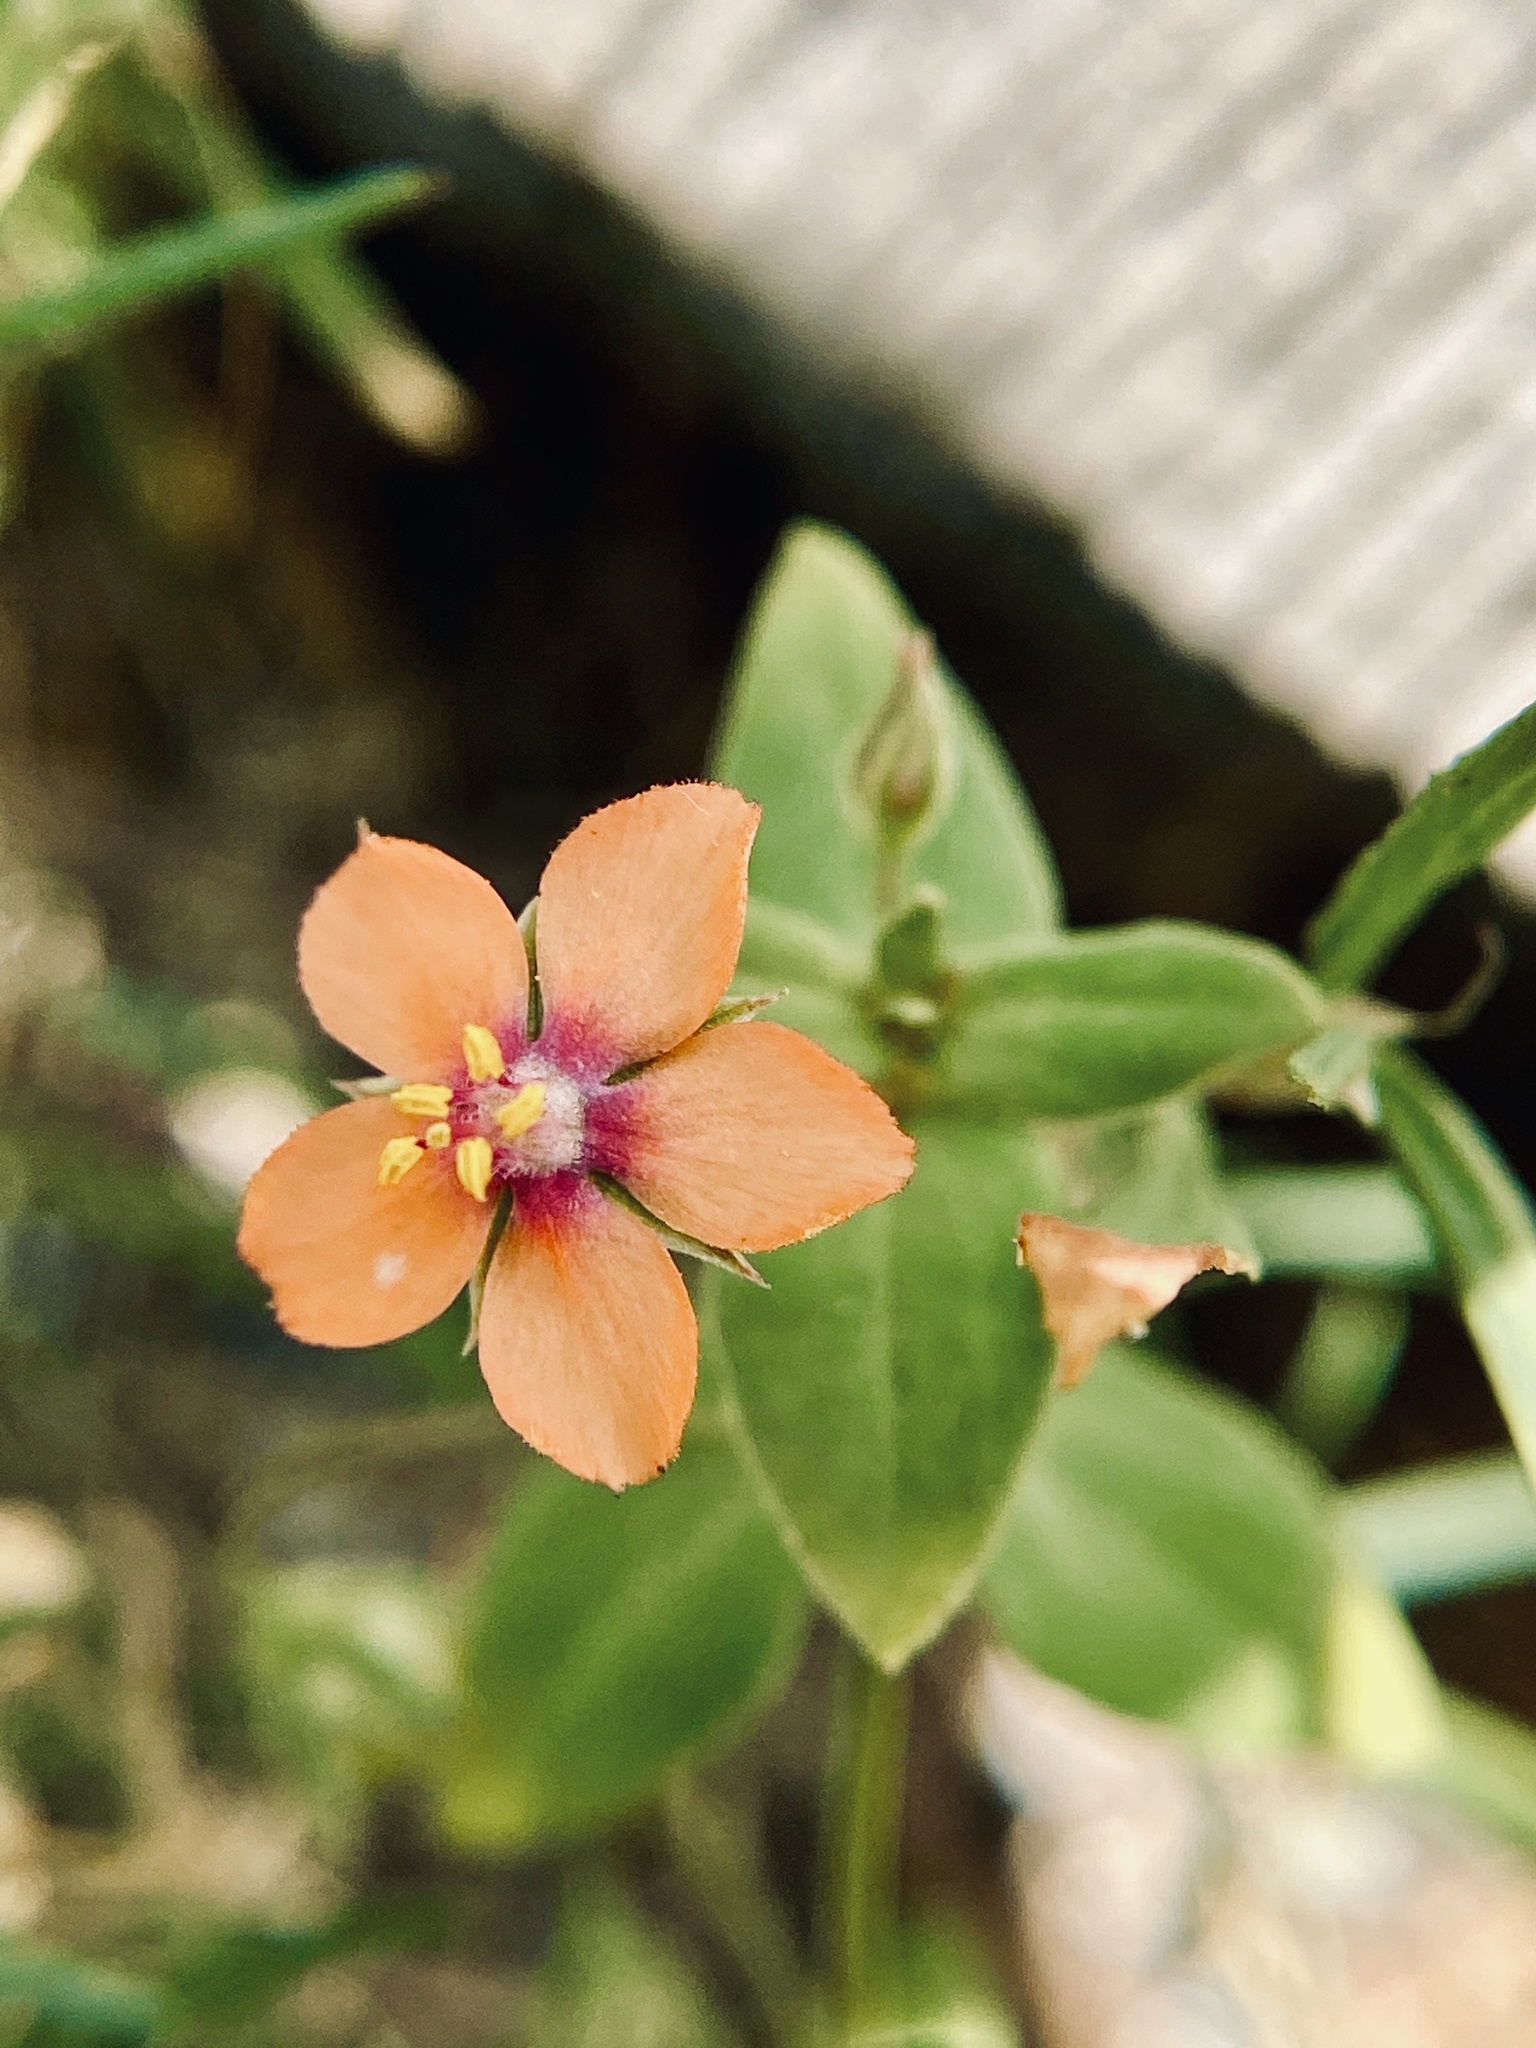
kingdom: Plantae
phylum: Tracheophyta
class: Magnoliopsida
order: Ericales
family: Primulaceae
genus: Lysimachia
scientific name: Lysimachia arvensis
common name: Scarlet pimpernel
